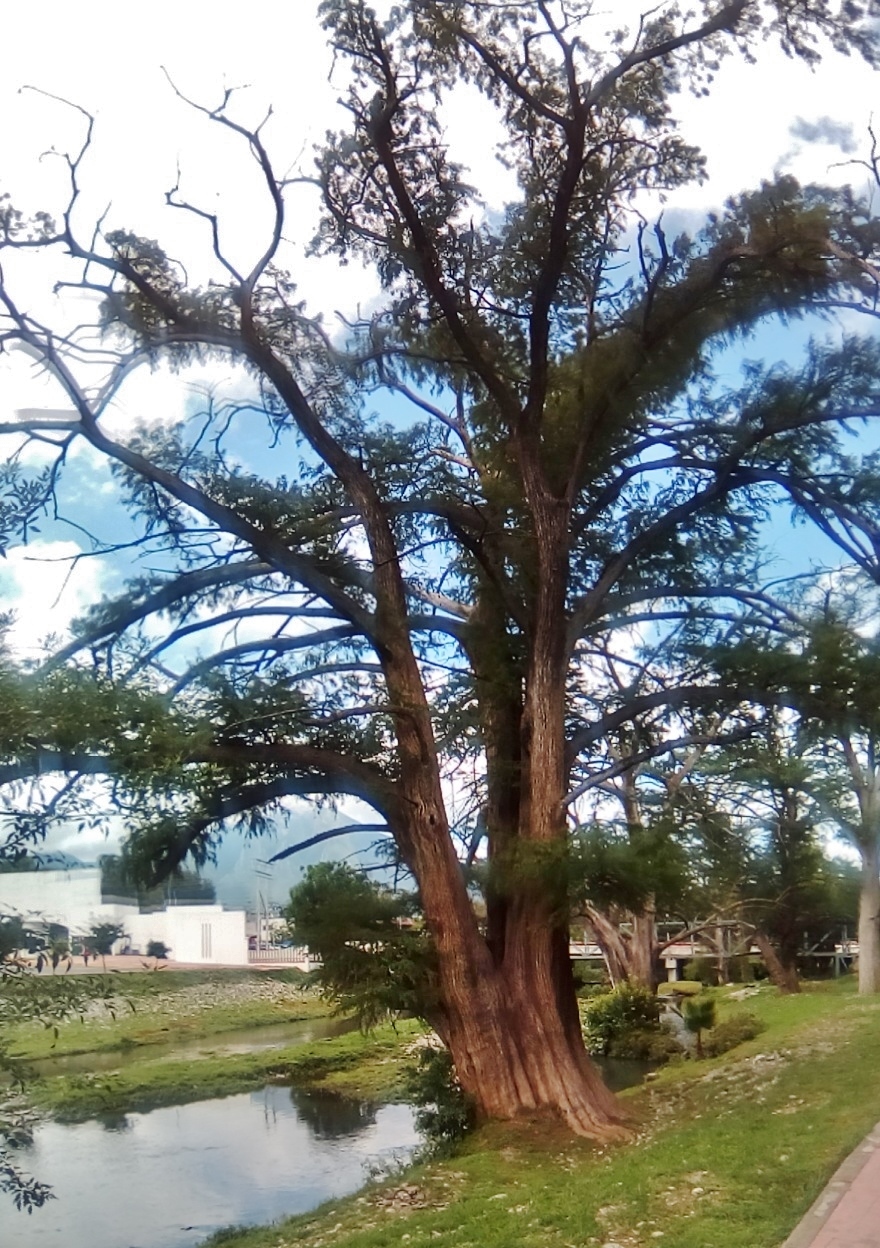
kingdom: Plantae
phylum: Tracheophyta
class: Pinopsida
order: Pinales
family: Cupressaceae
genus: Taxodium
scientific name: Taxodium mucronatum
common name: Montezume bald cypress
